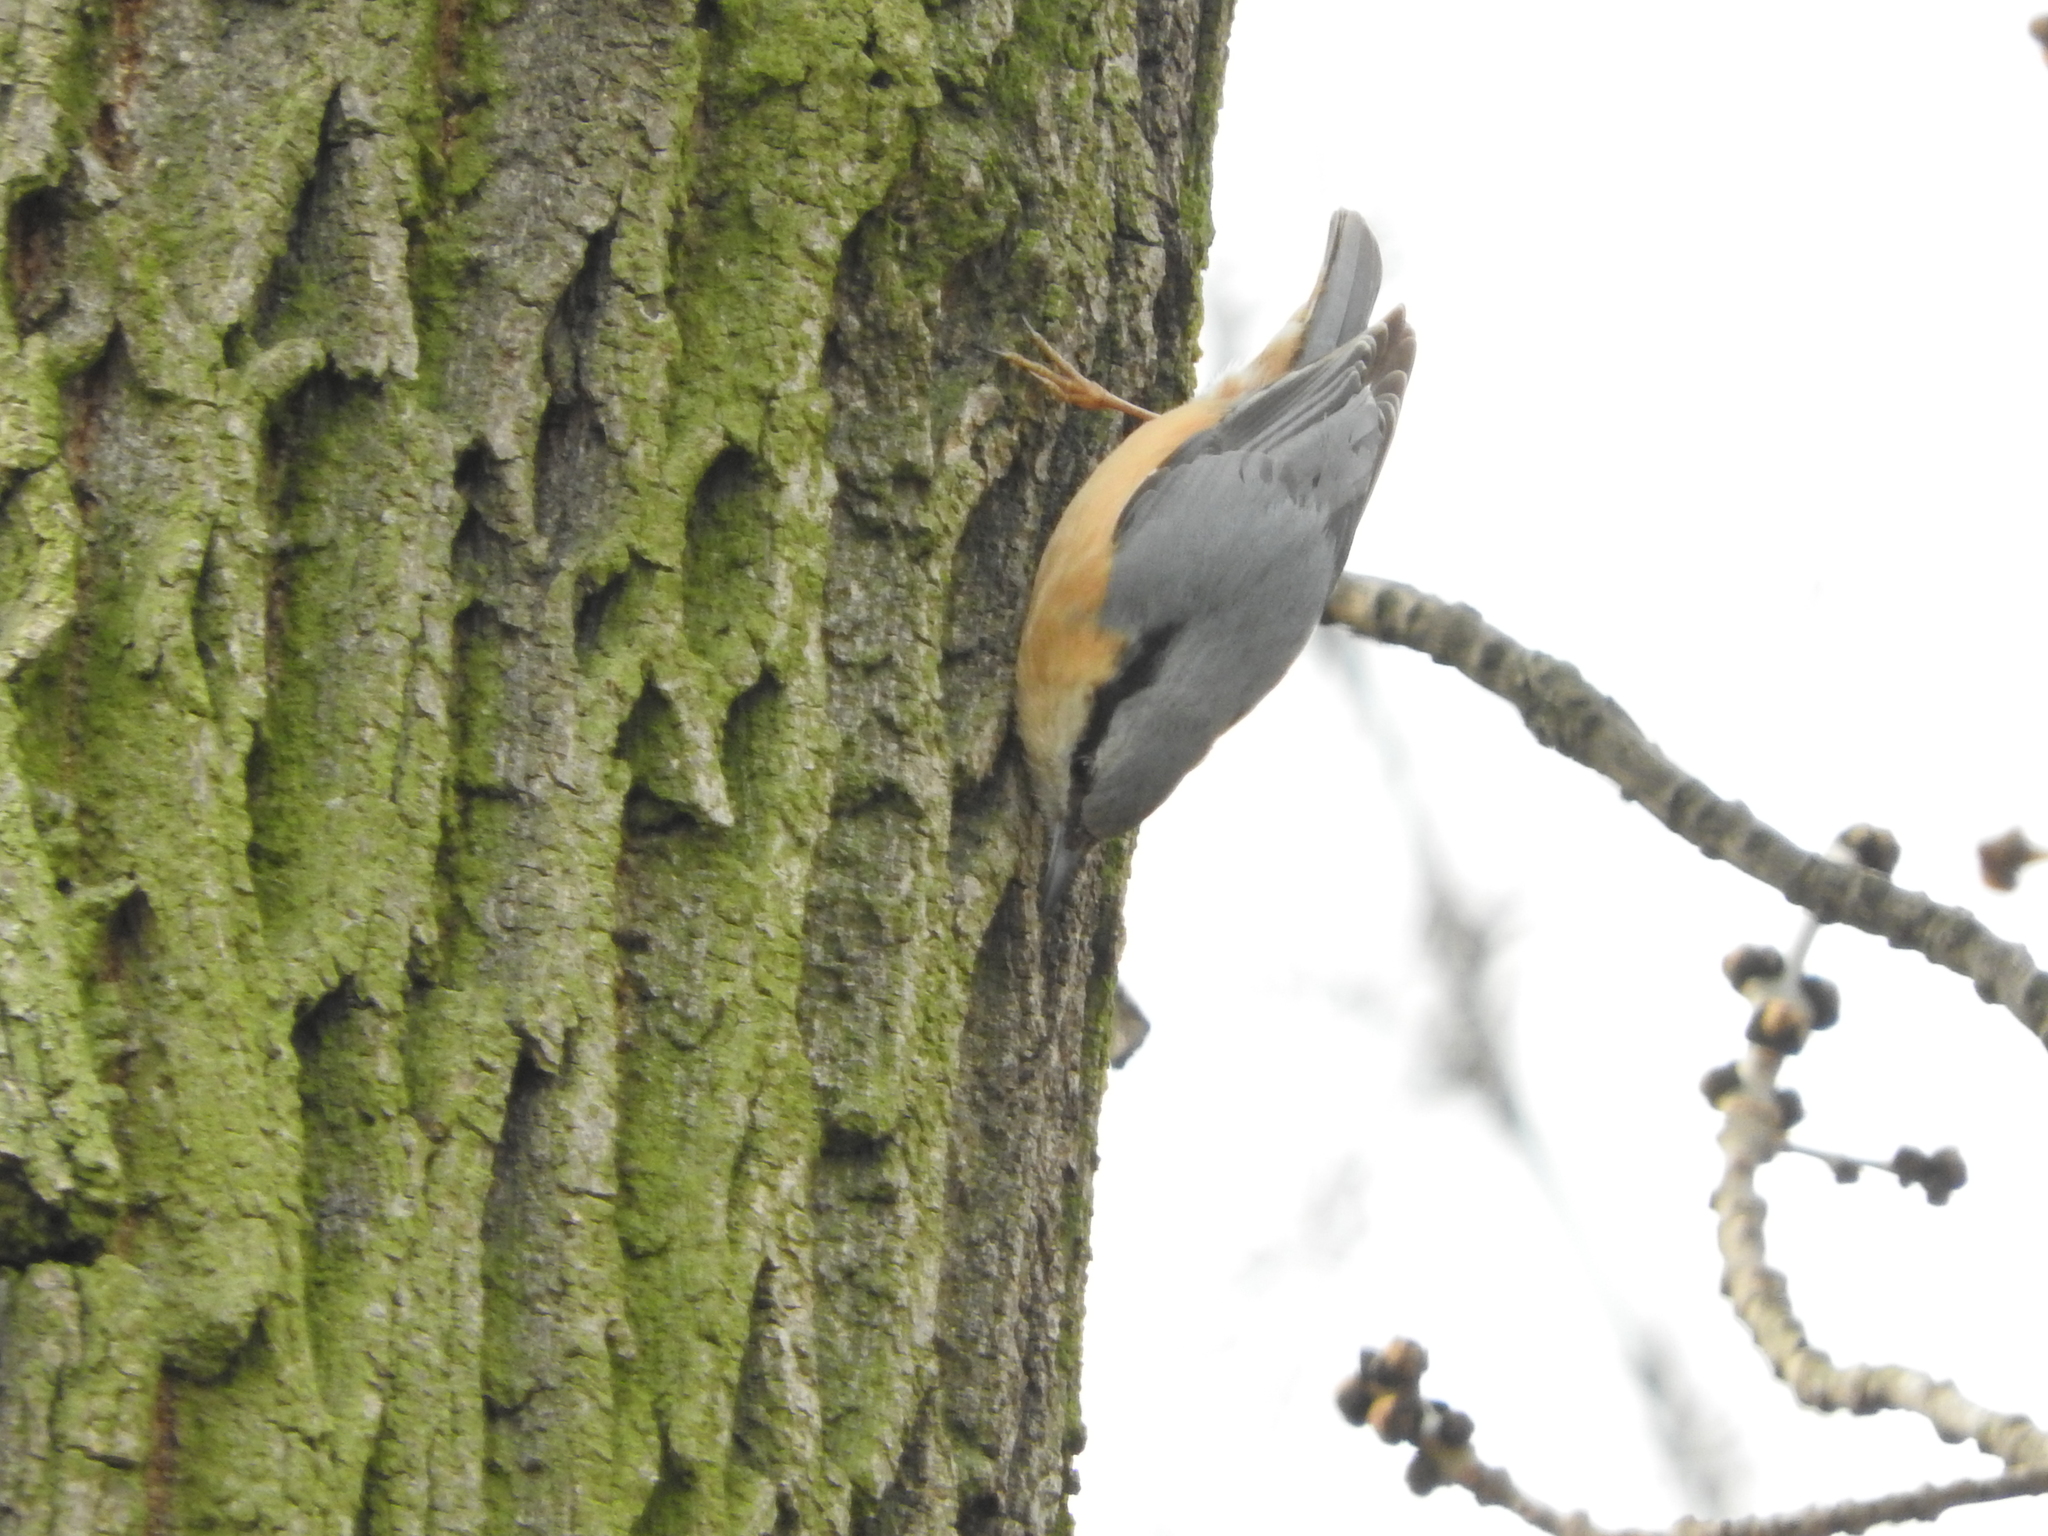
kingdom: Animalia
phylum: Chordata
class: Aves
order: Passeriformes
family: Sittidae
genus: Sitta
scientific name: Sitta europaea
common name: Eurasian nuthatch
